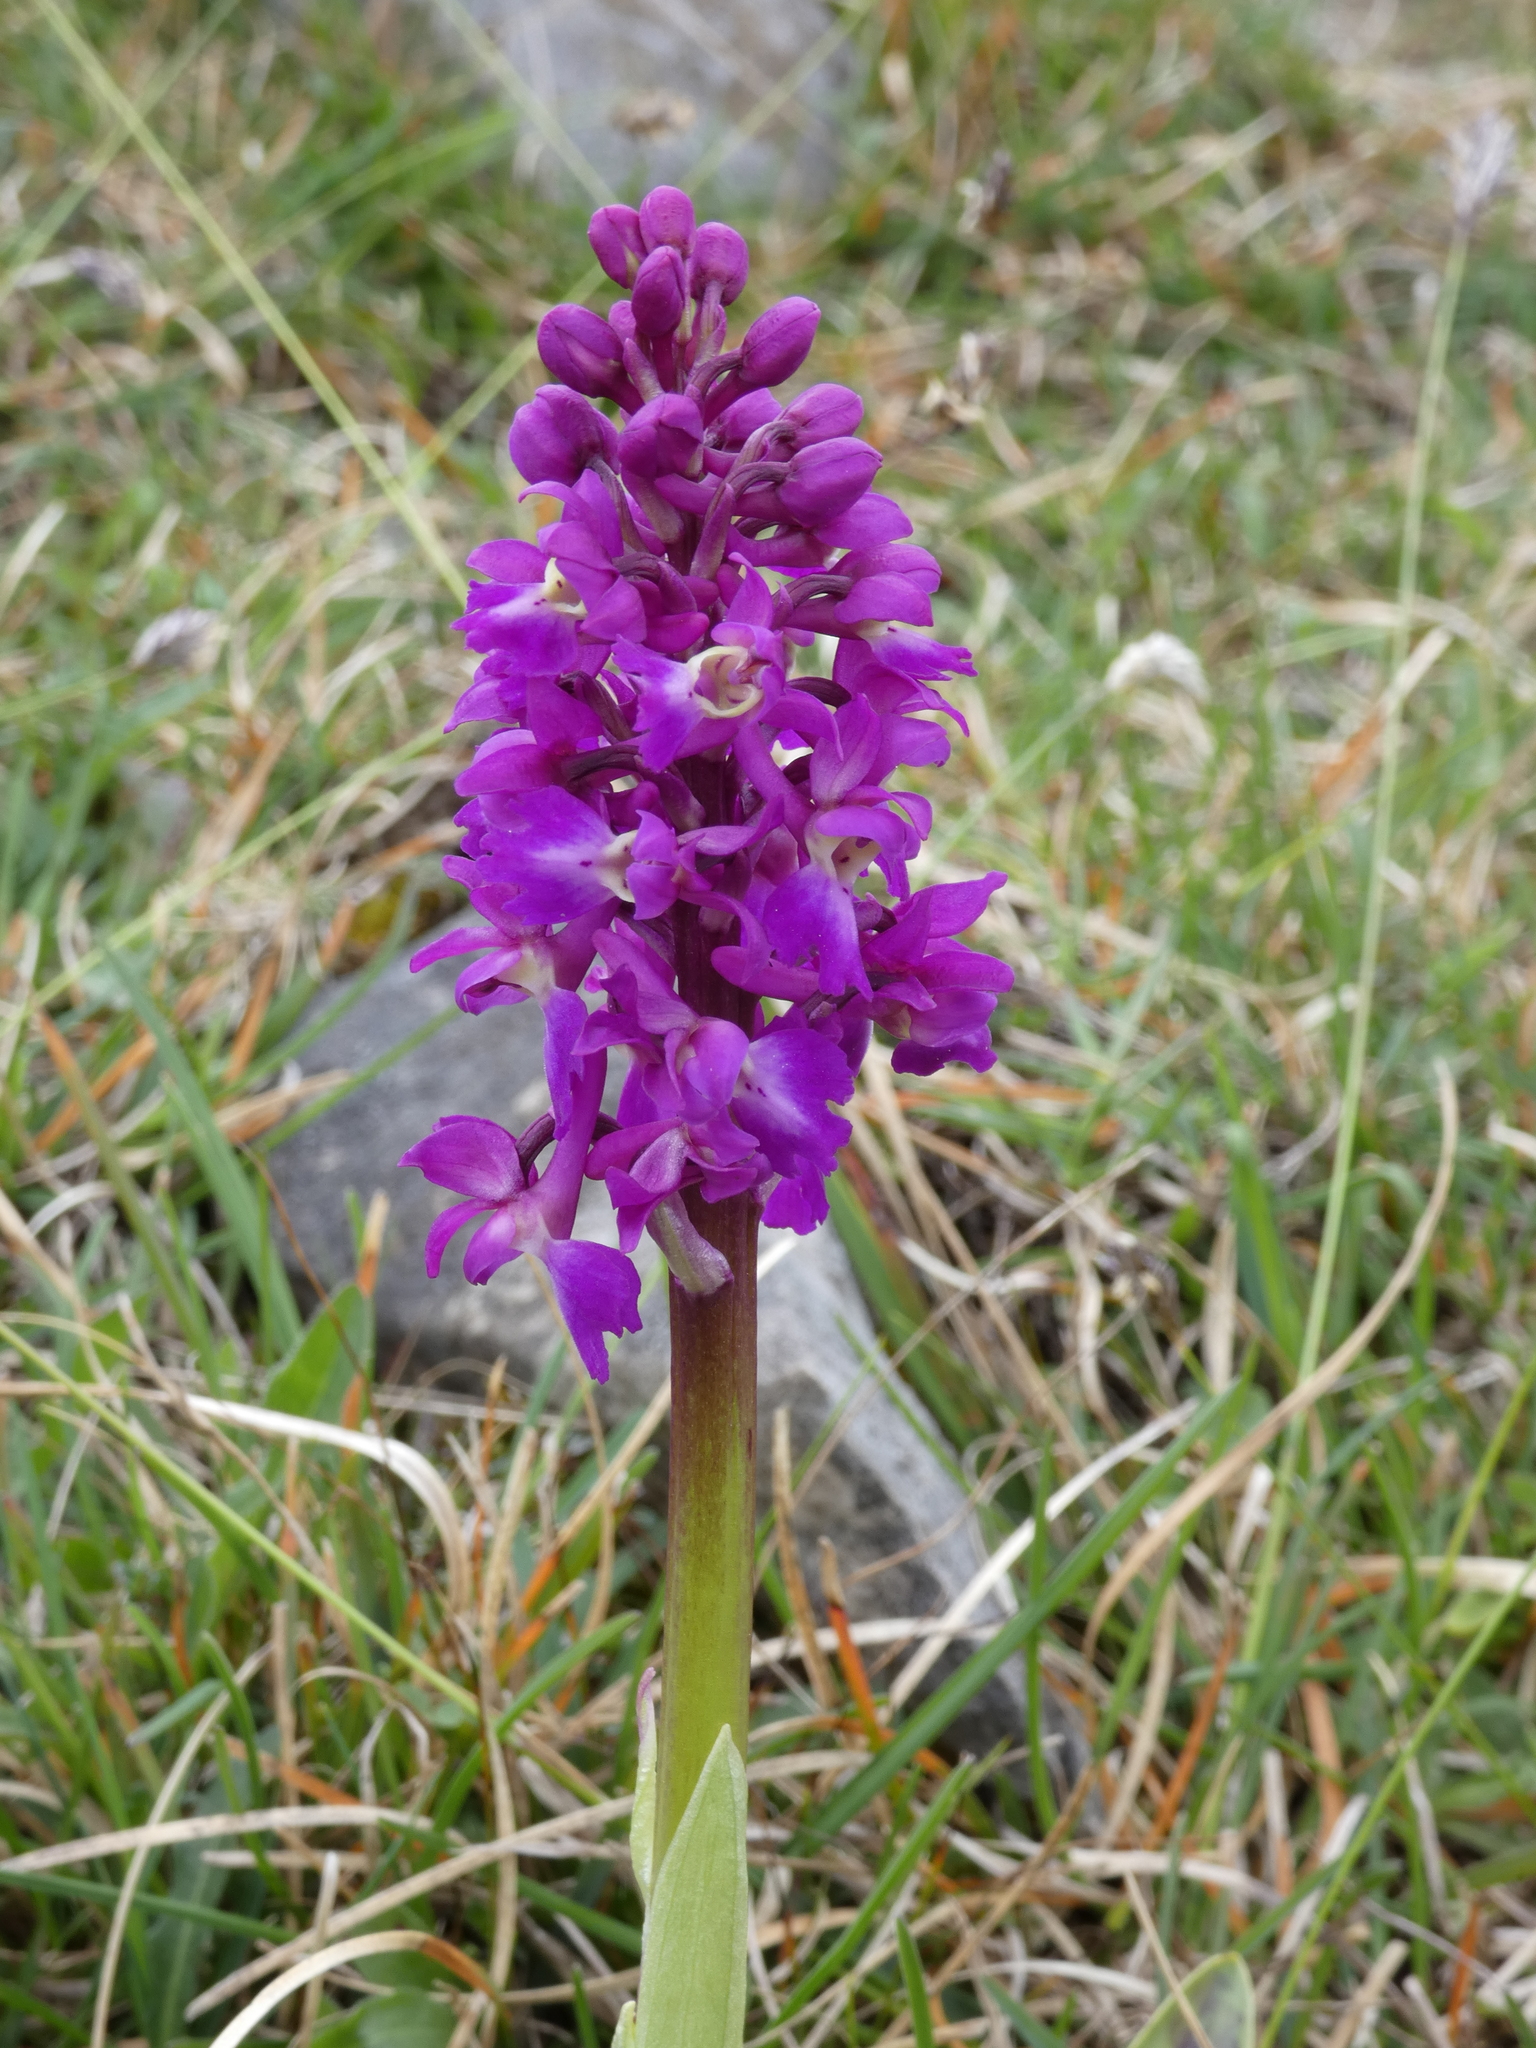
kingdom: Plantae
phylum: Tracheophyta
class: Liliopsida
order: Asparagales
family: Orchidaceae
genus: Orchis
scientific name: Orchis mascula
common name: Early-purple orchid
